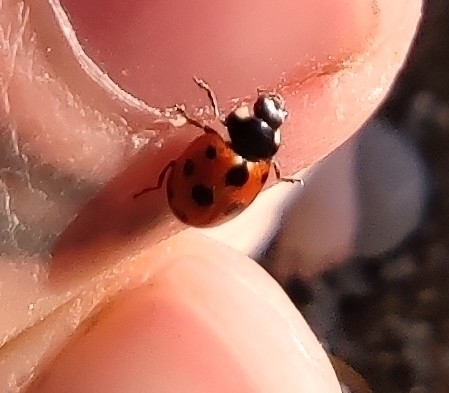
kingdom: Animalia
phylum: Arthropoda
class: Insecta
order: Coleoptera
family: Coccinellidae
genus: Coccinella
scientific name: Coccinella undecimpunctata
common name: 11-spot ladybird
